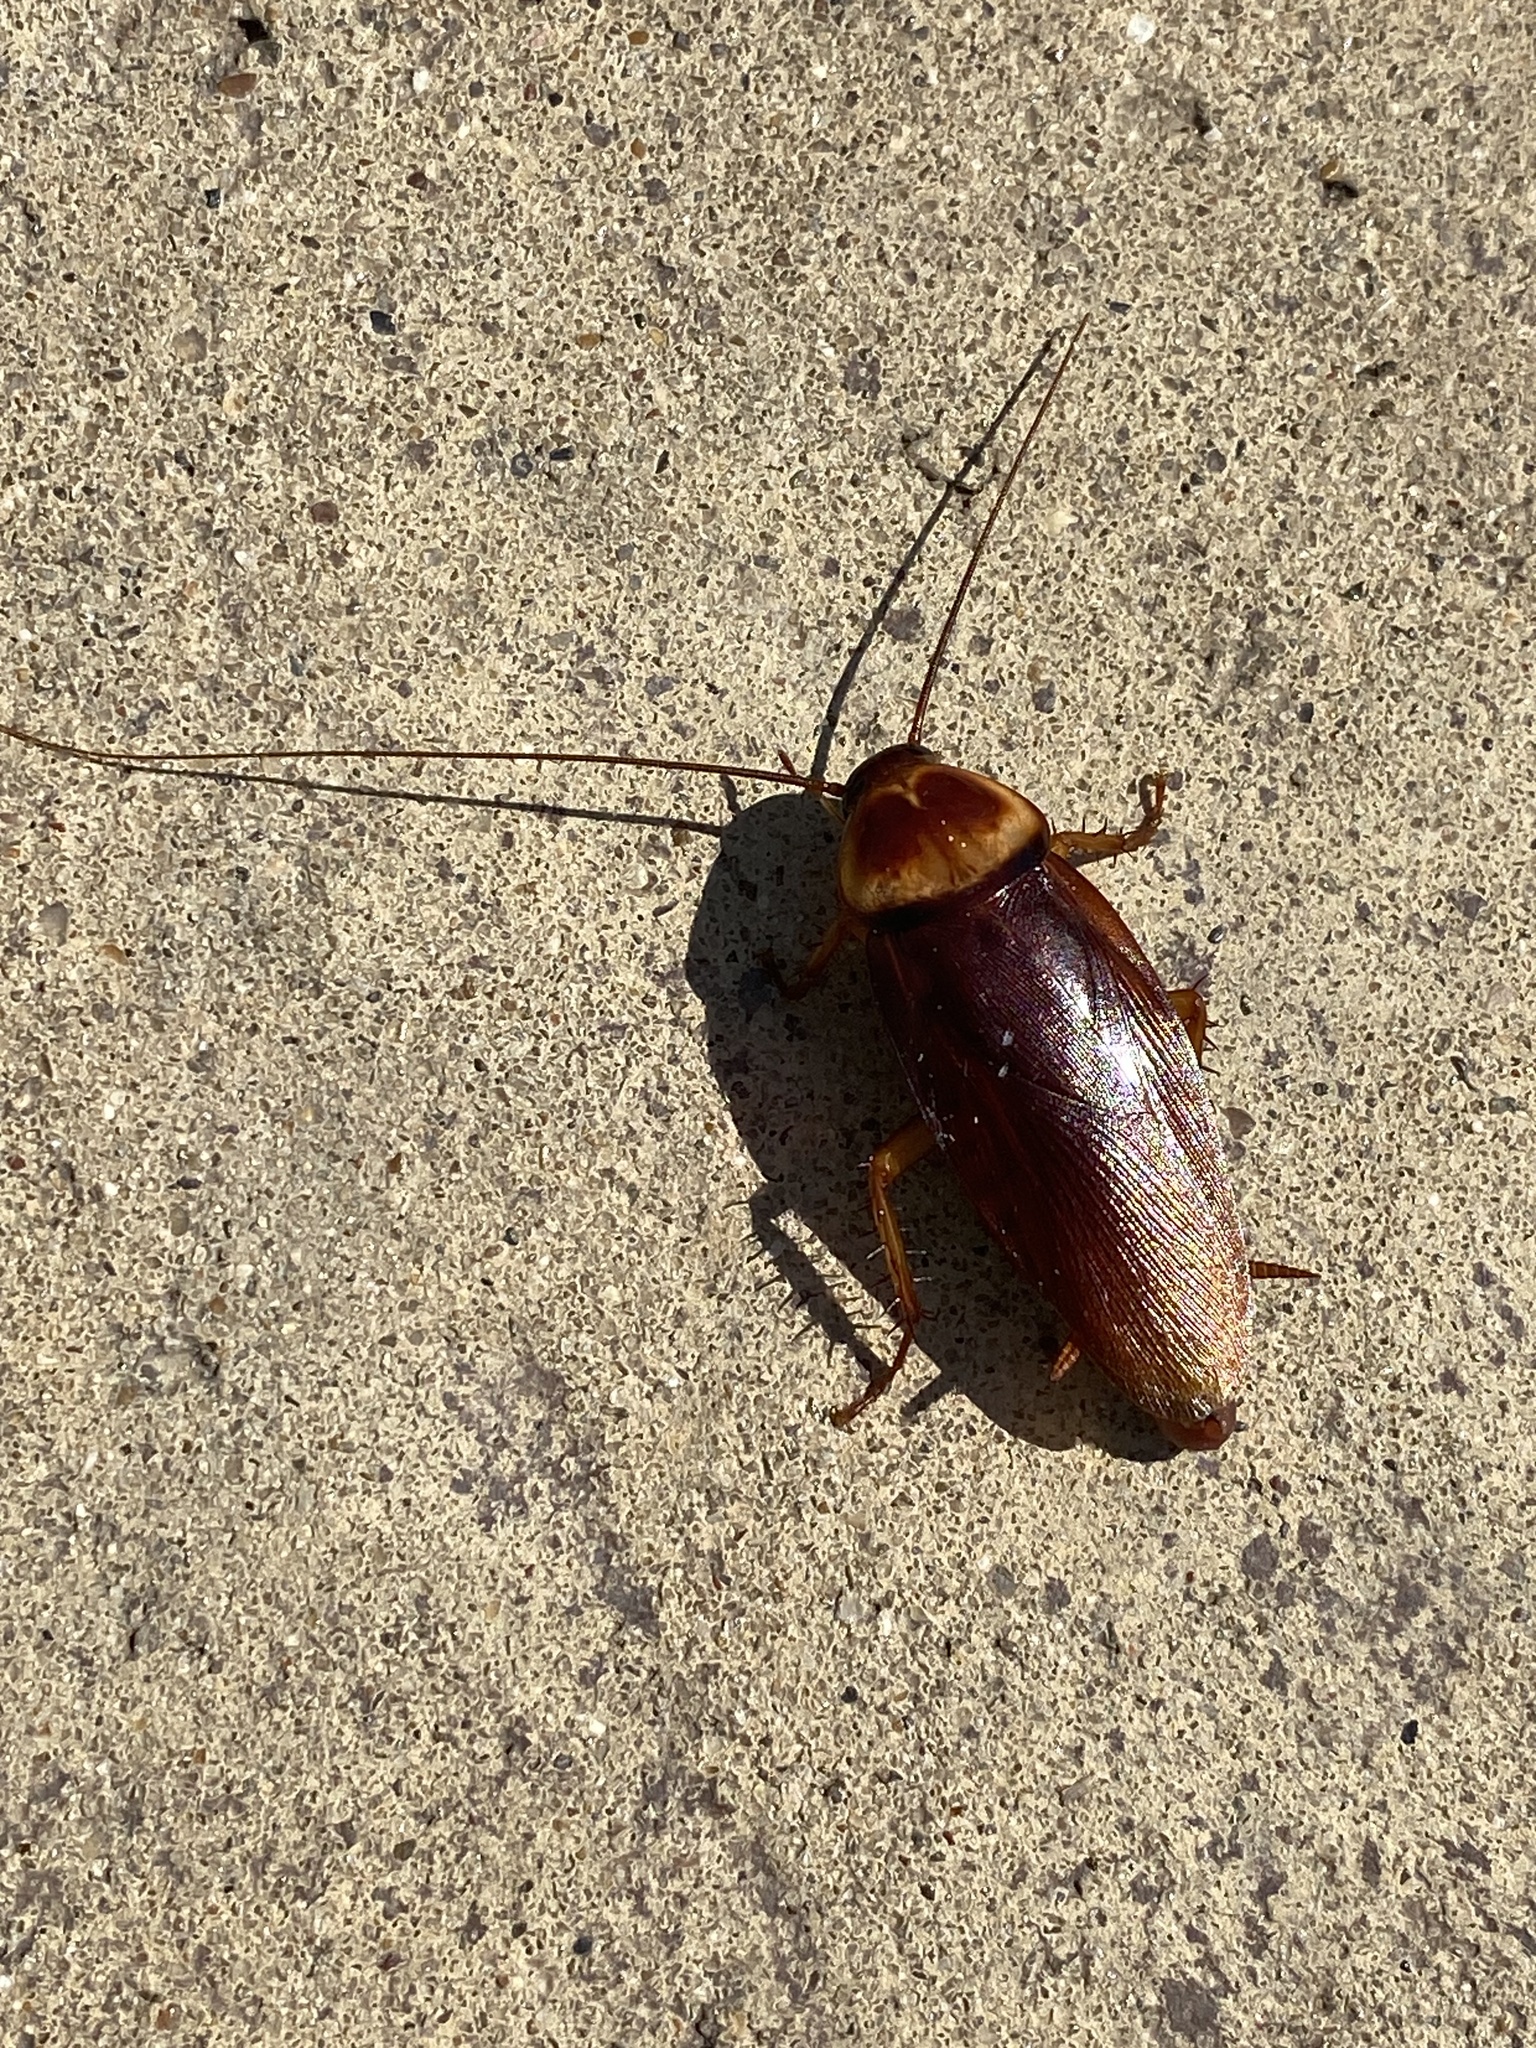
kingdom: Animalia
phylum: Arthropoda
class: Insecta
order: Blattodea
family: Blattidae
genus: Periplaneta
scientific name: Periplaneta americana
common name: American cockroach
